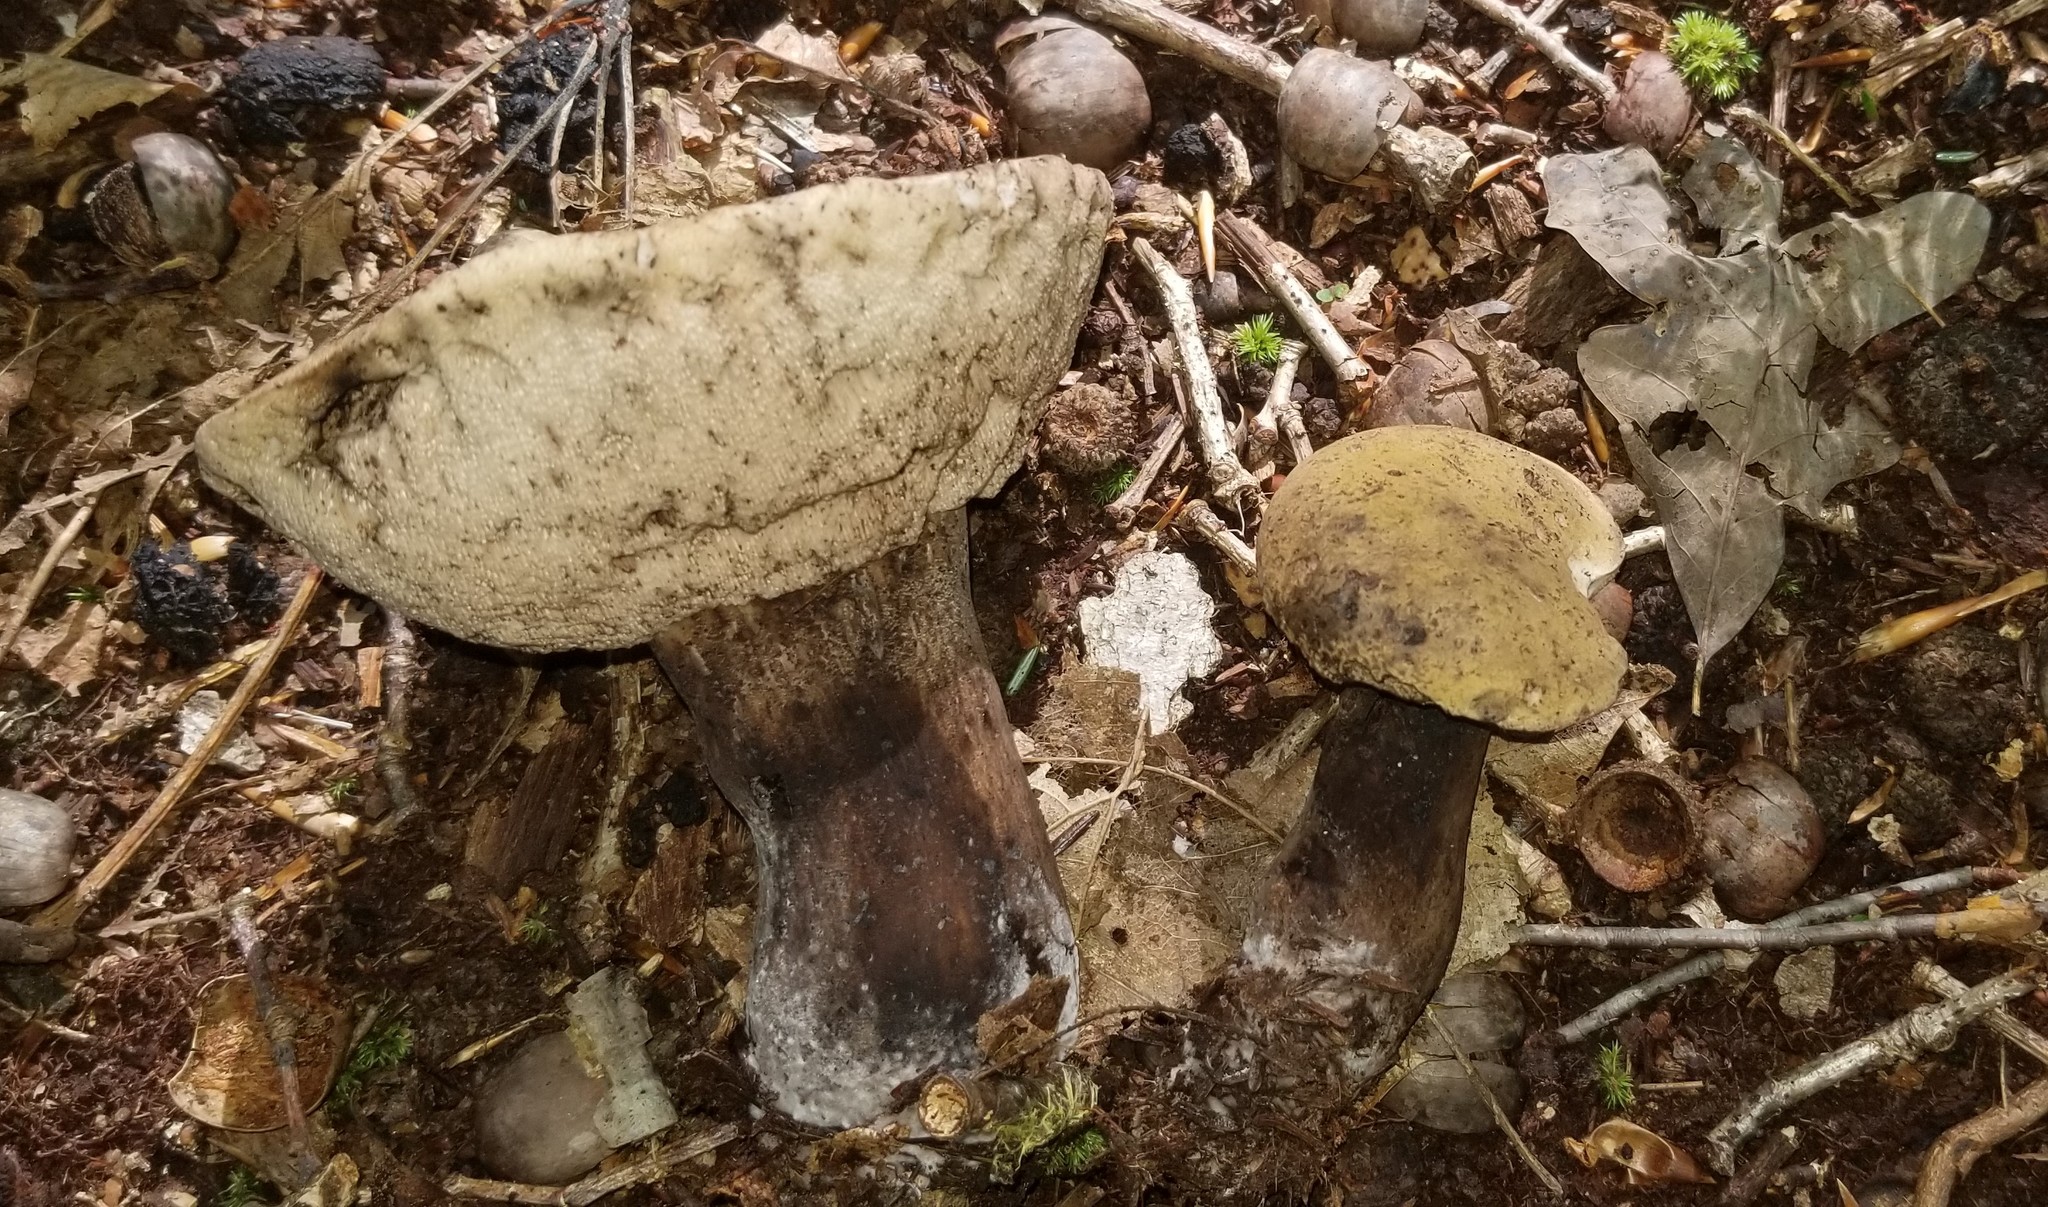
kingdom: Fungi
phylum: Basidiomycota
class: Agaricomycetes
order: Boletales
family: Boletaceae
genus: Tylopilus
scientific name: Tylopilus atronicotianus
